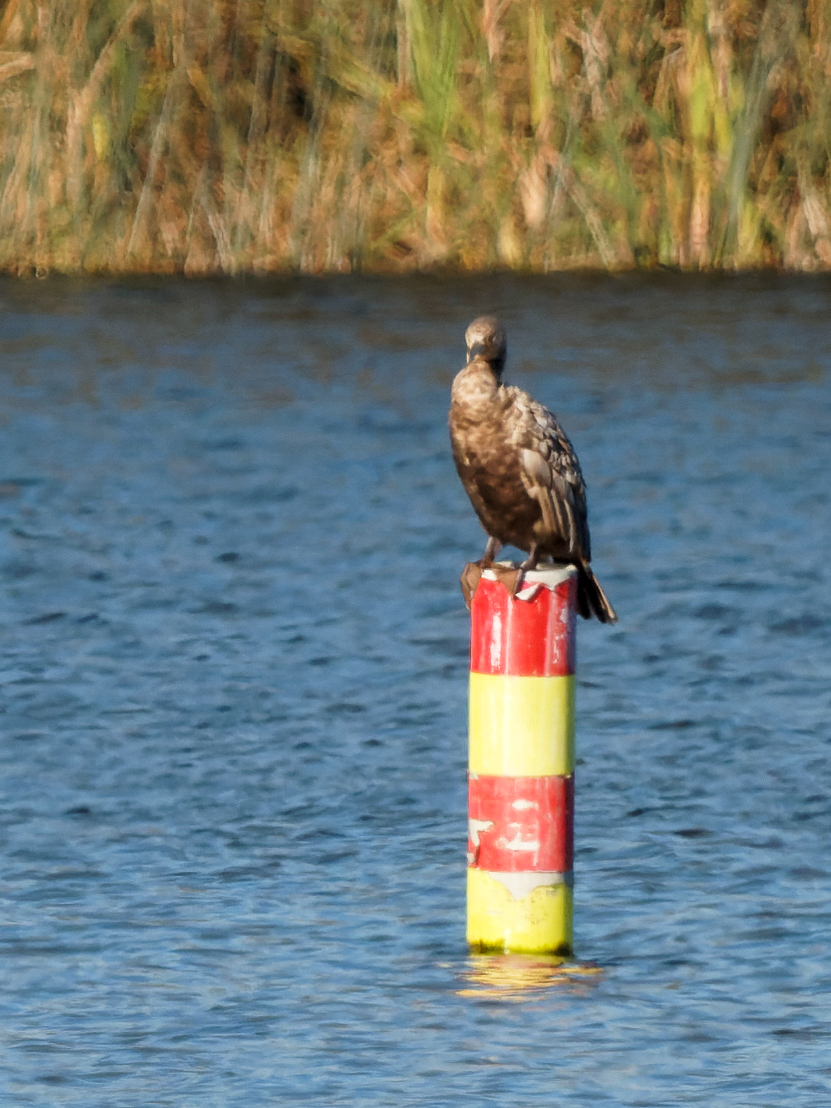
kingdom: Animalia
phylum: Chordata
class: Aves
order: Suliformes
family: Phalacrocoracidae
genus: Phalacrocorax
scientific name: Phalacrocorax carbo
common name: Great cormorant
